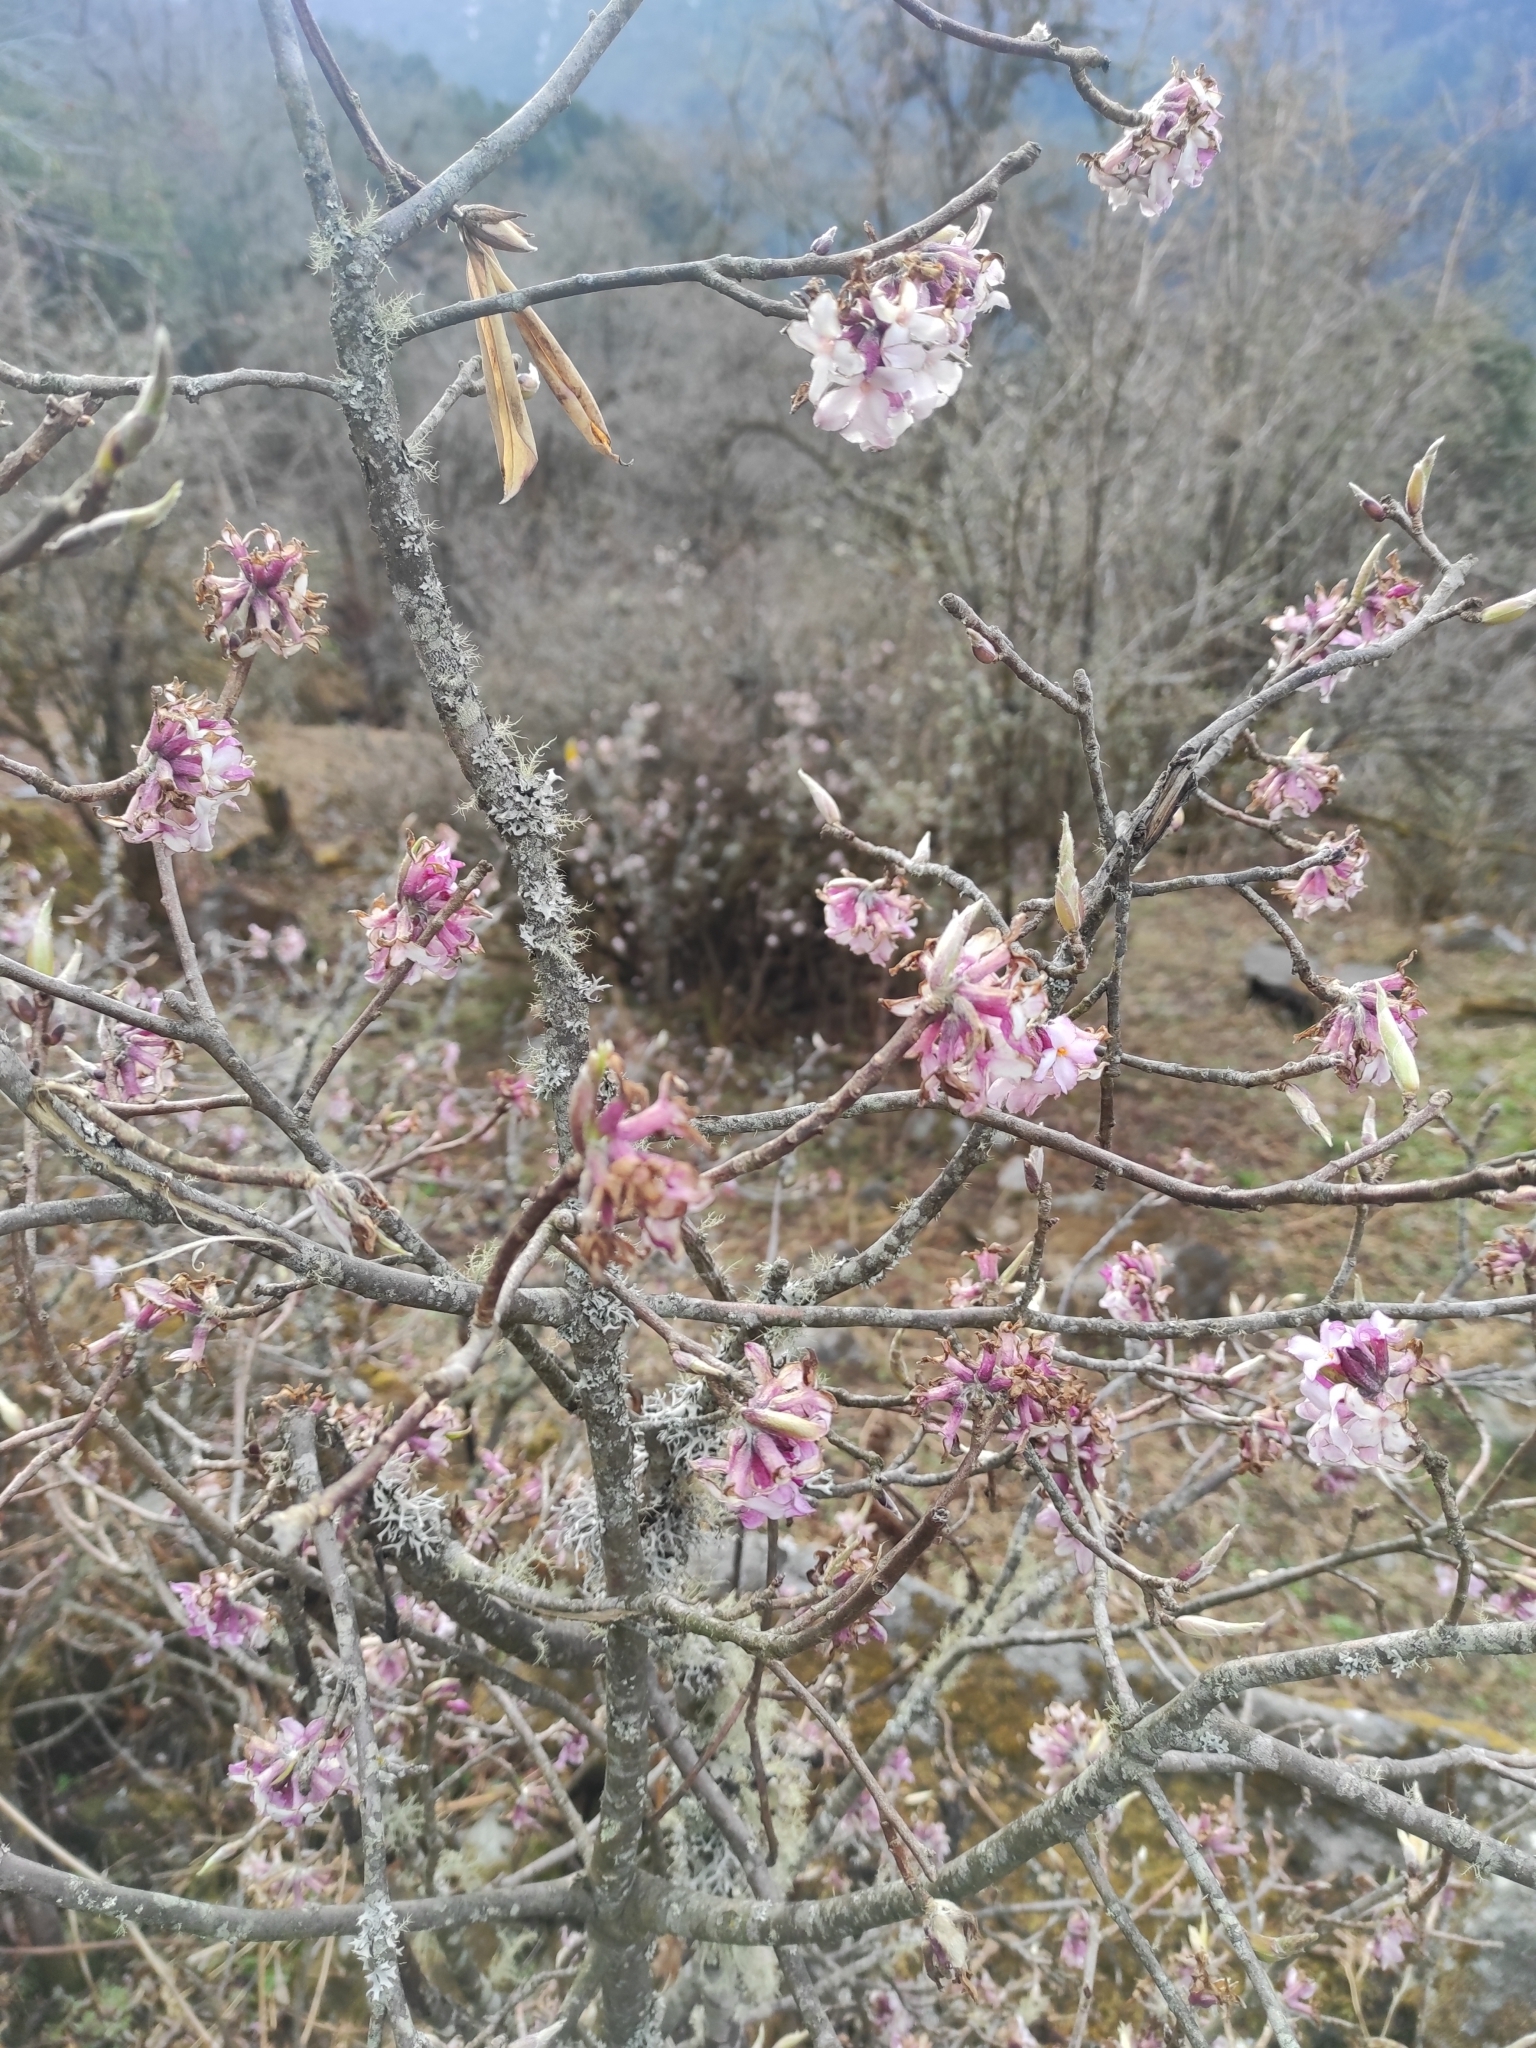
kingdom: Plantae
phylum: Tracheophyta
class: Magnoliopsida
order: Malvales
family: Thymelaeaceae
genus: Daphne
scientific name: Daphne bholua
